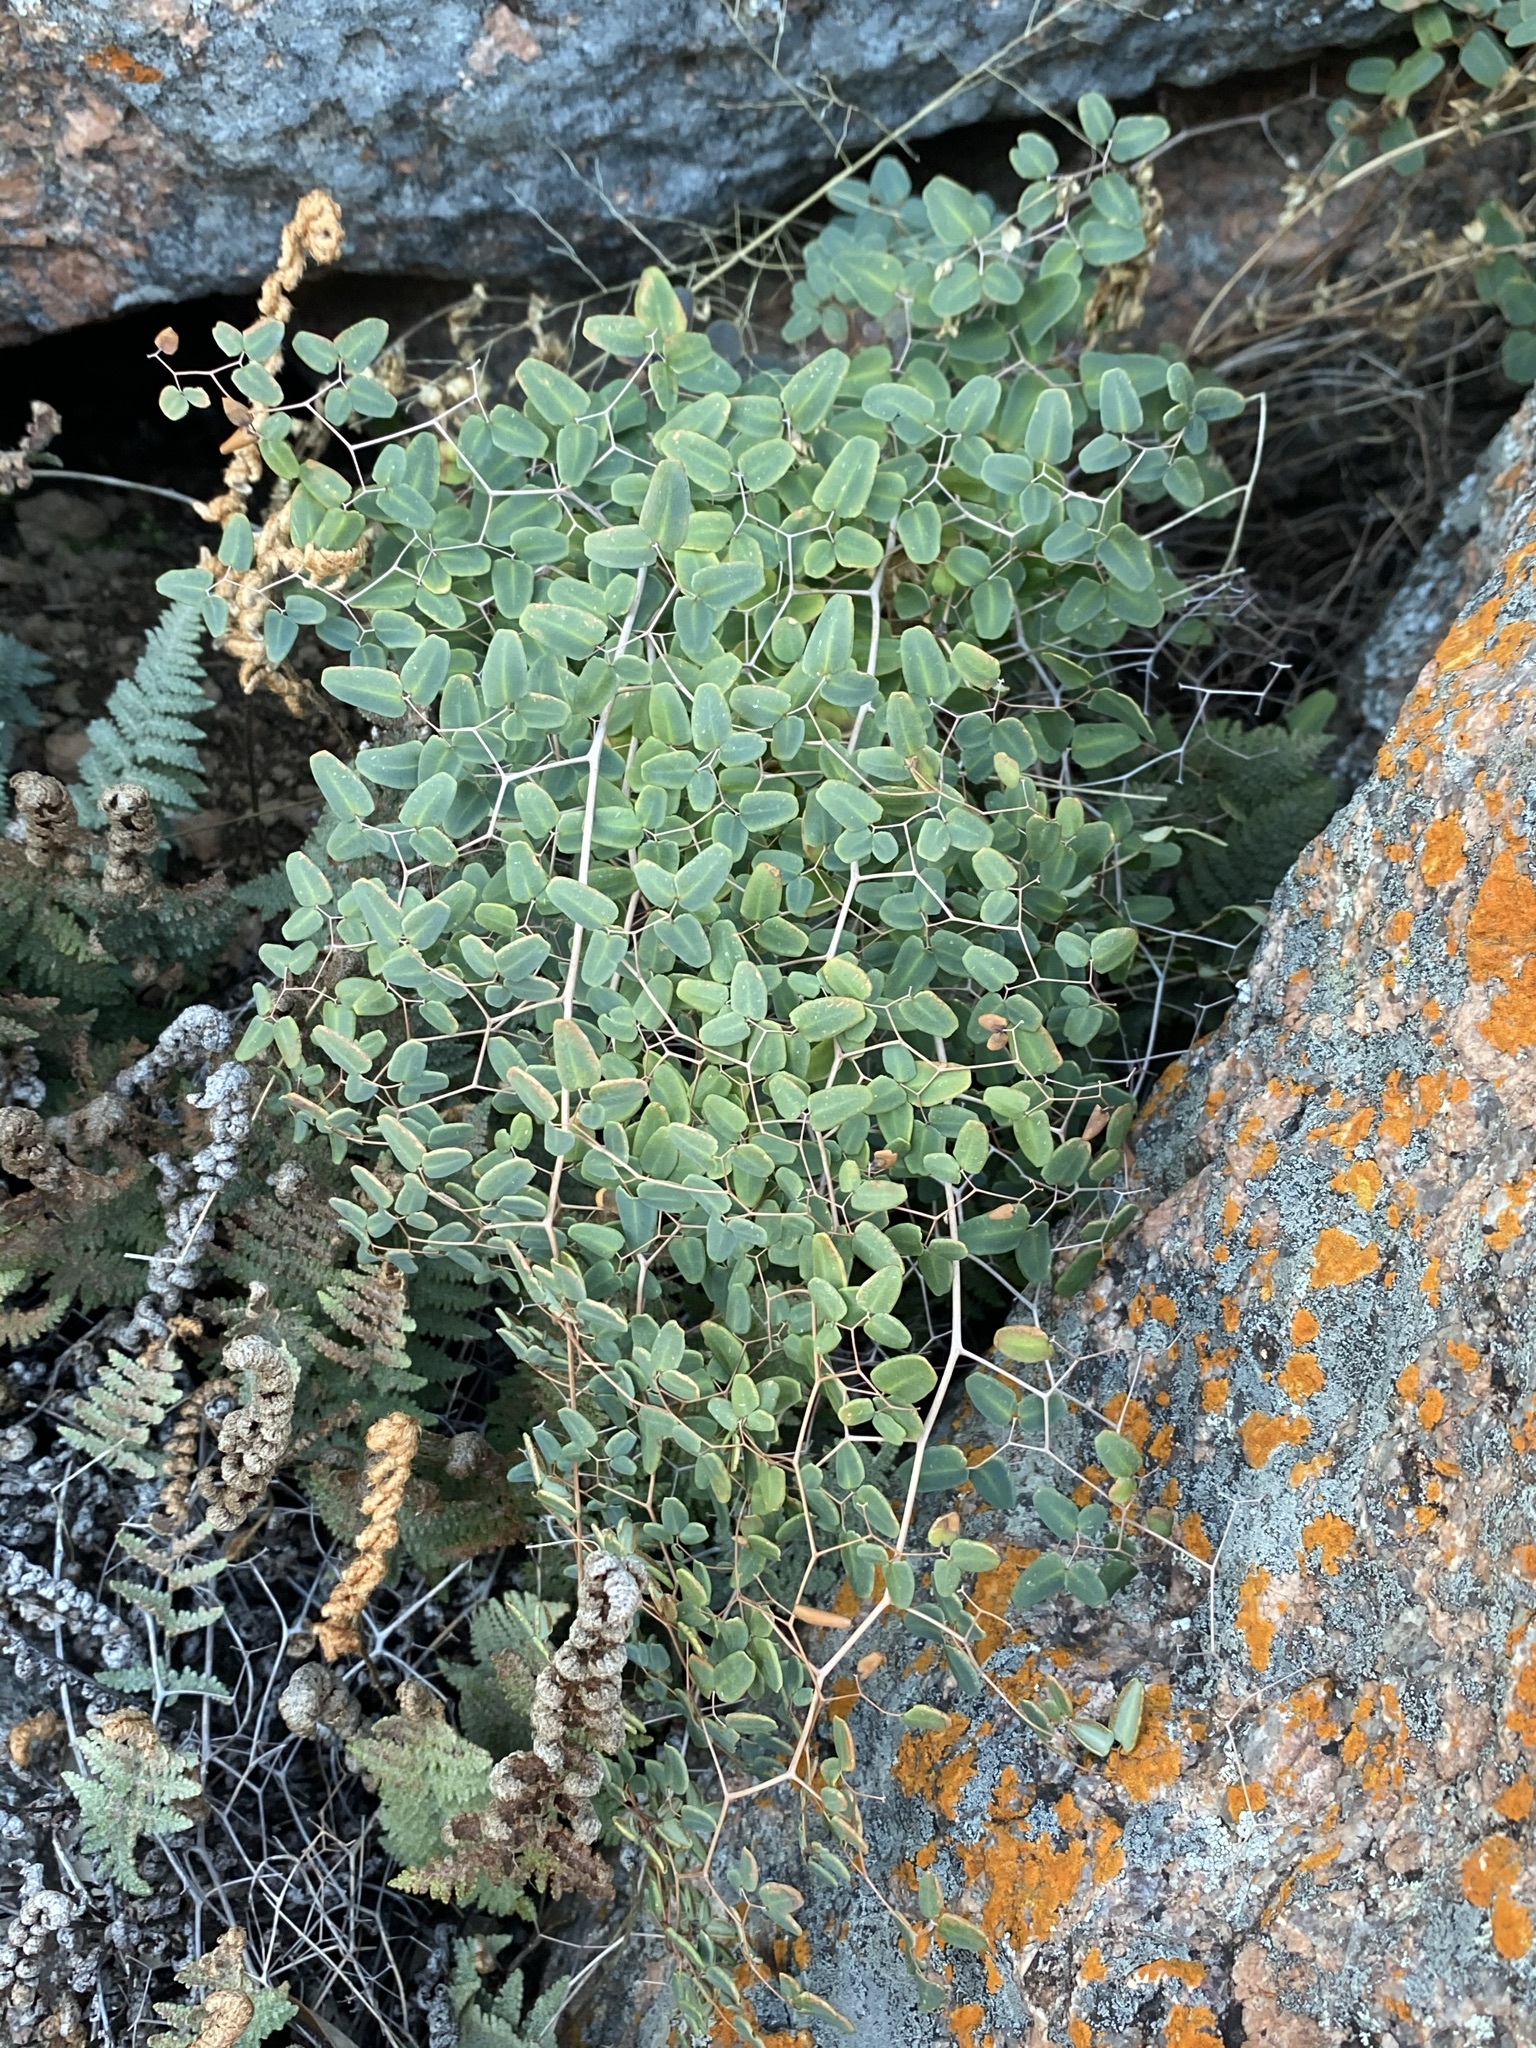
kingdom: Plantae
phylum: Tracheophyta
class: Polypodiopsida
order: Polypodiales
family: Pteridaceae
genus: Pellaea
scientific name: Pellaea ovata
